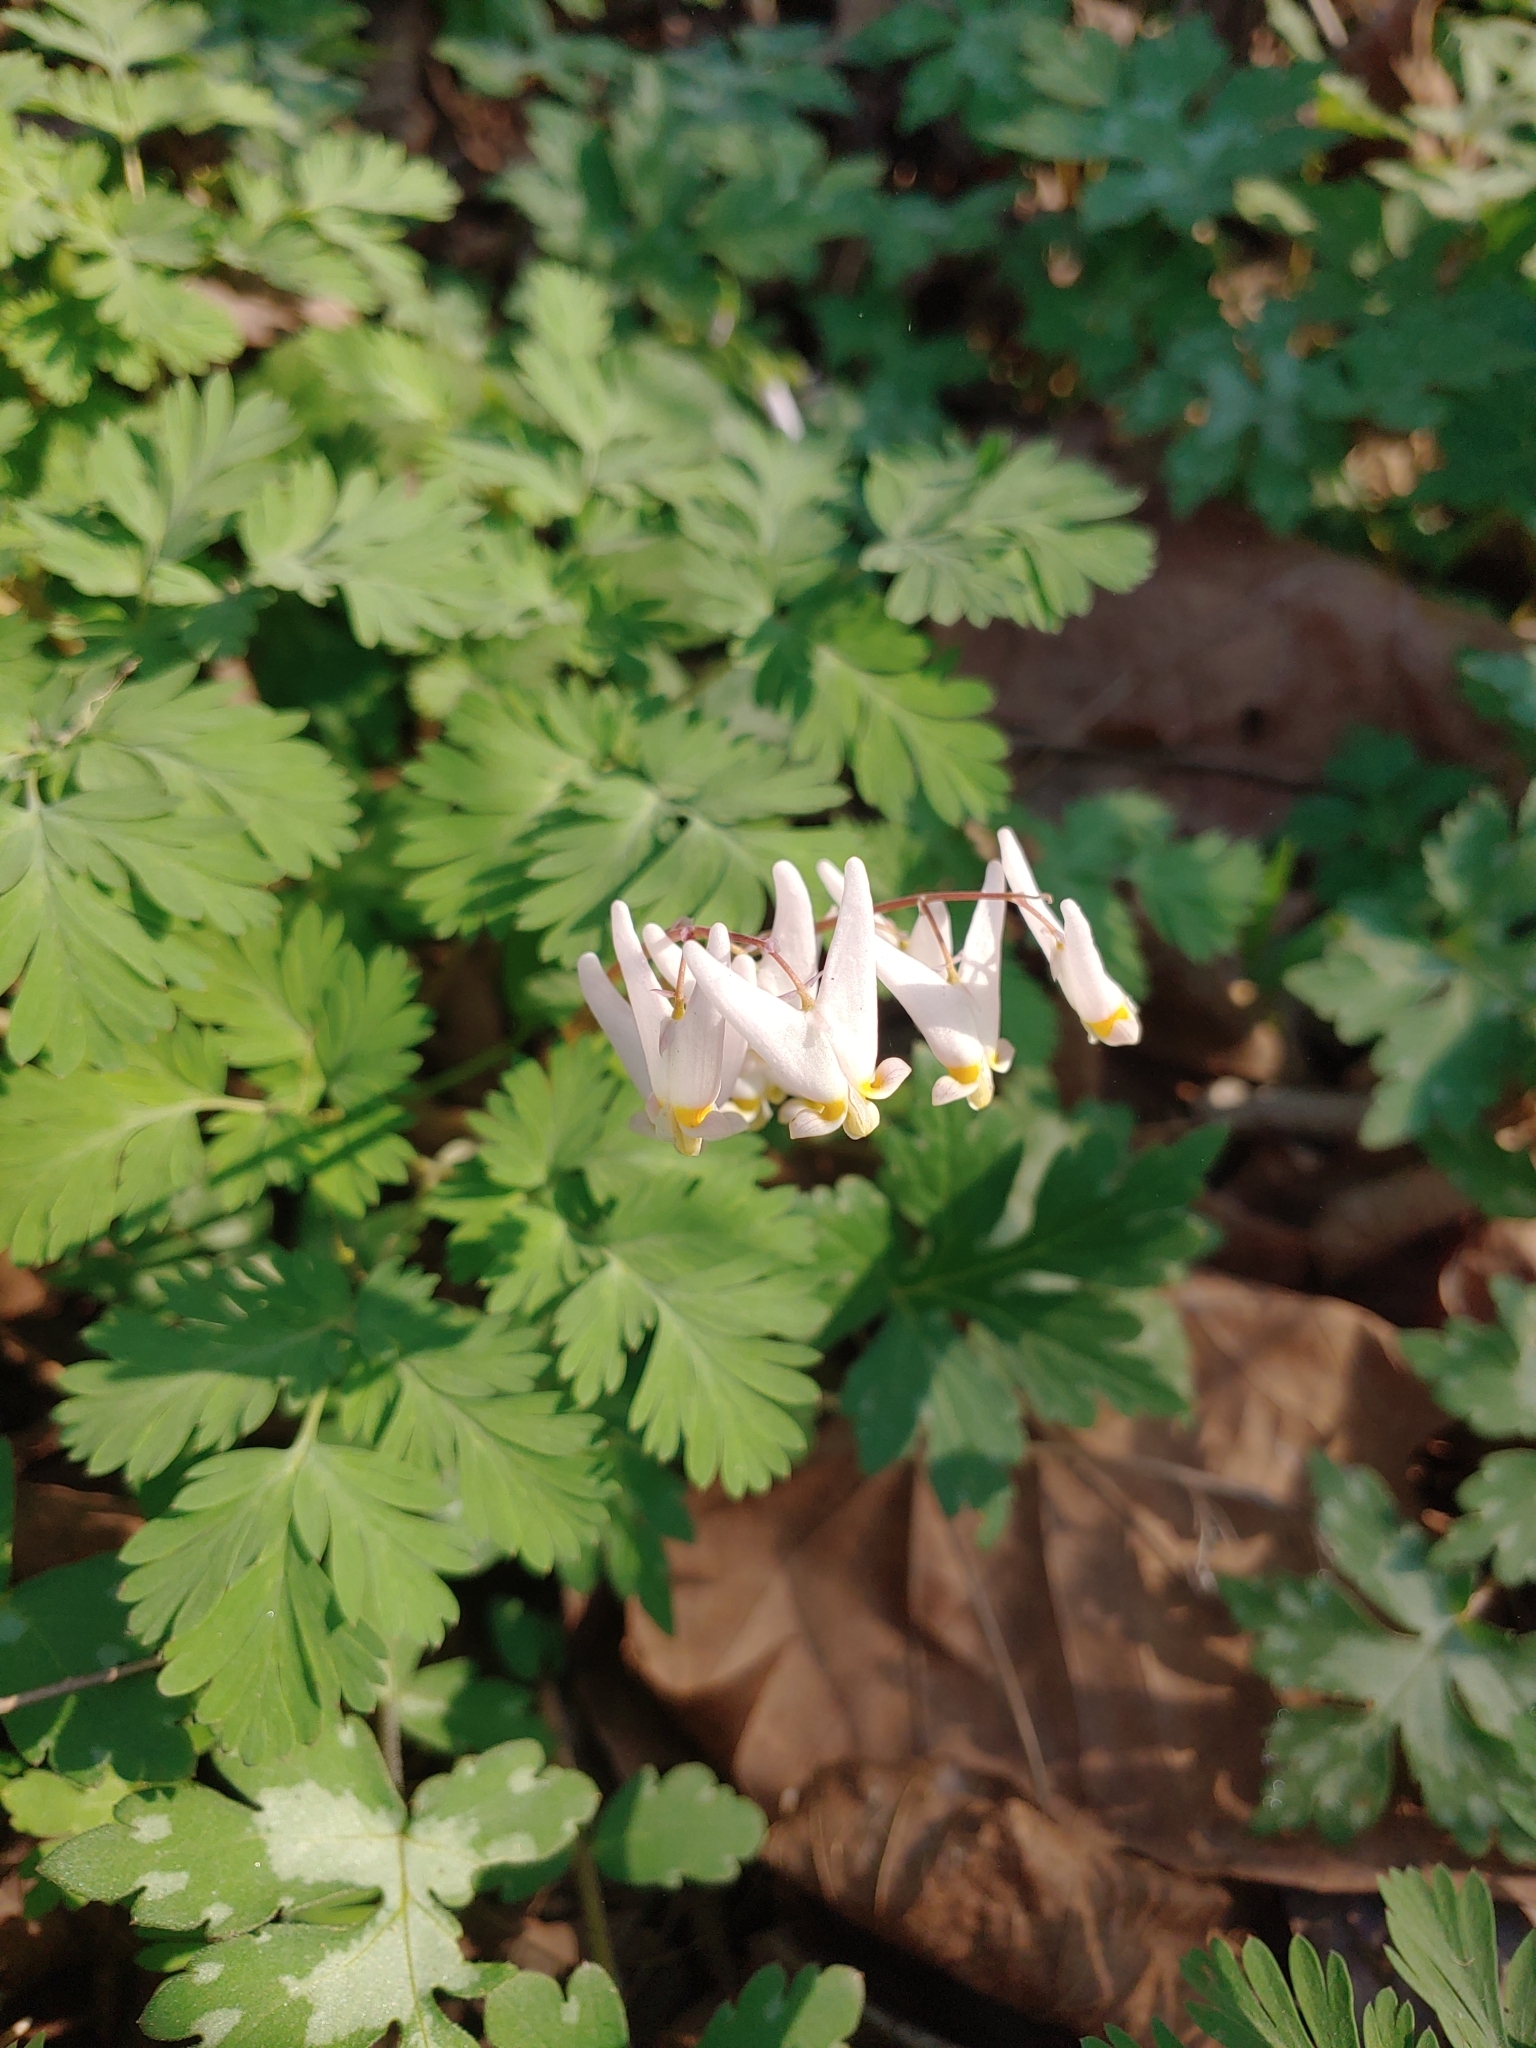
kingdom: Plantae
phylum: Tracheophyta
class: Magnoliopsida
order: Ranunculales
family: Papaveraceae
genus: Dicentra
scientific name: Dicentra cucullaria
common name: Dutchman's breeches
